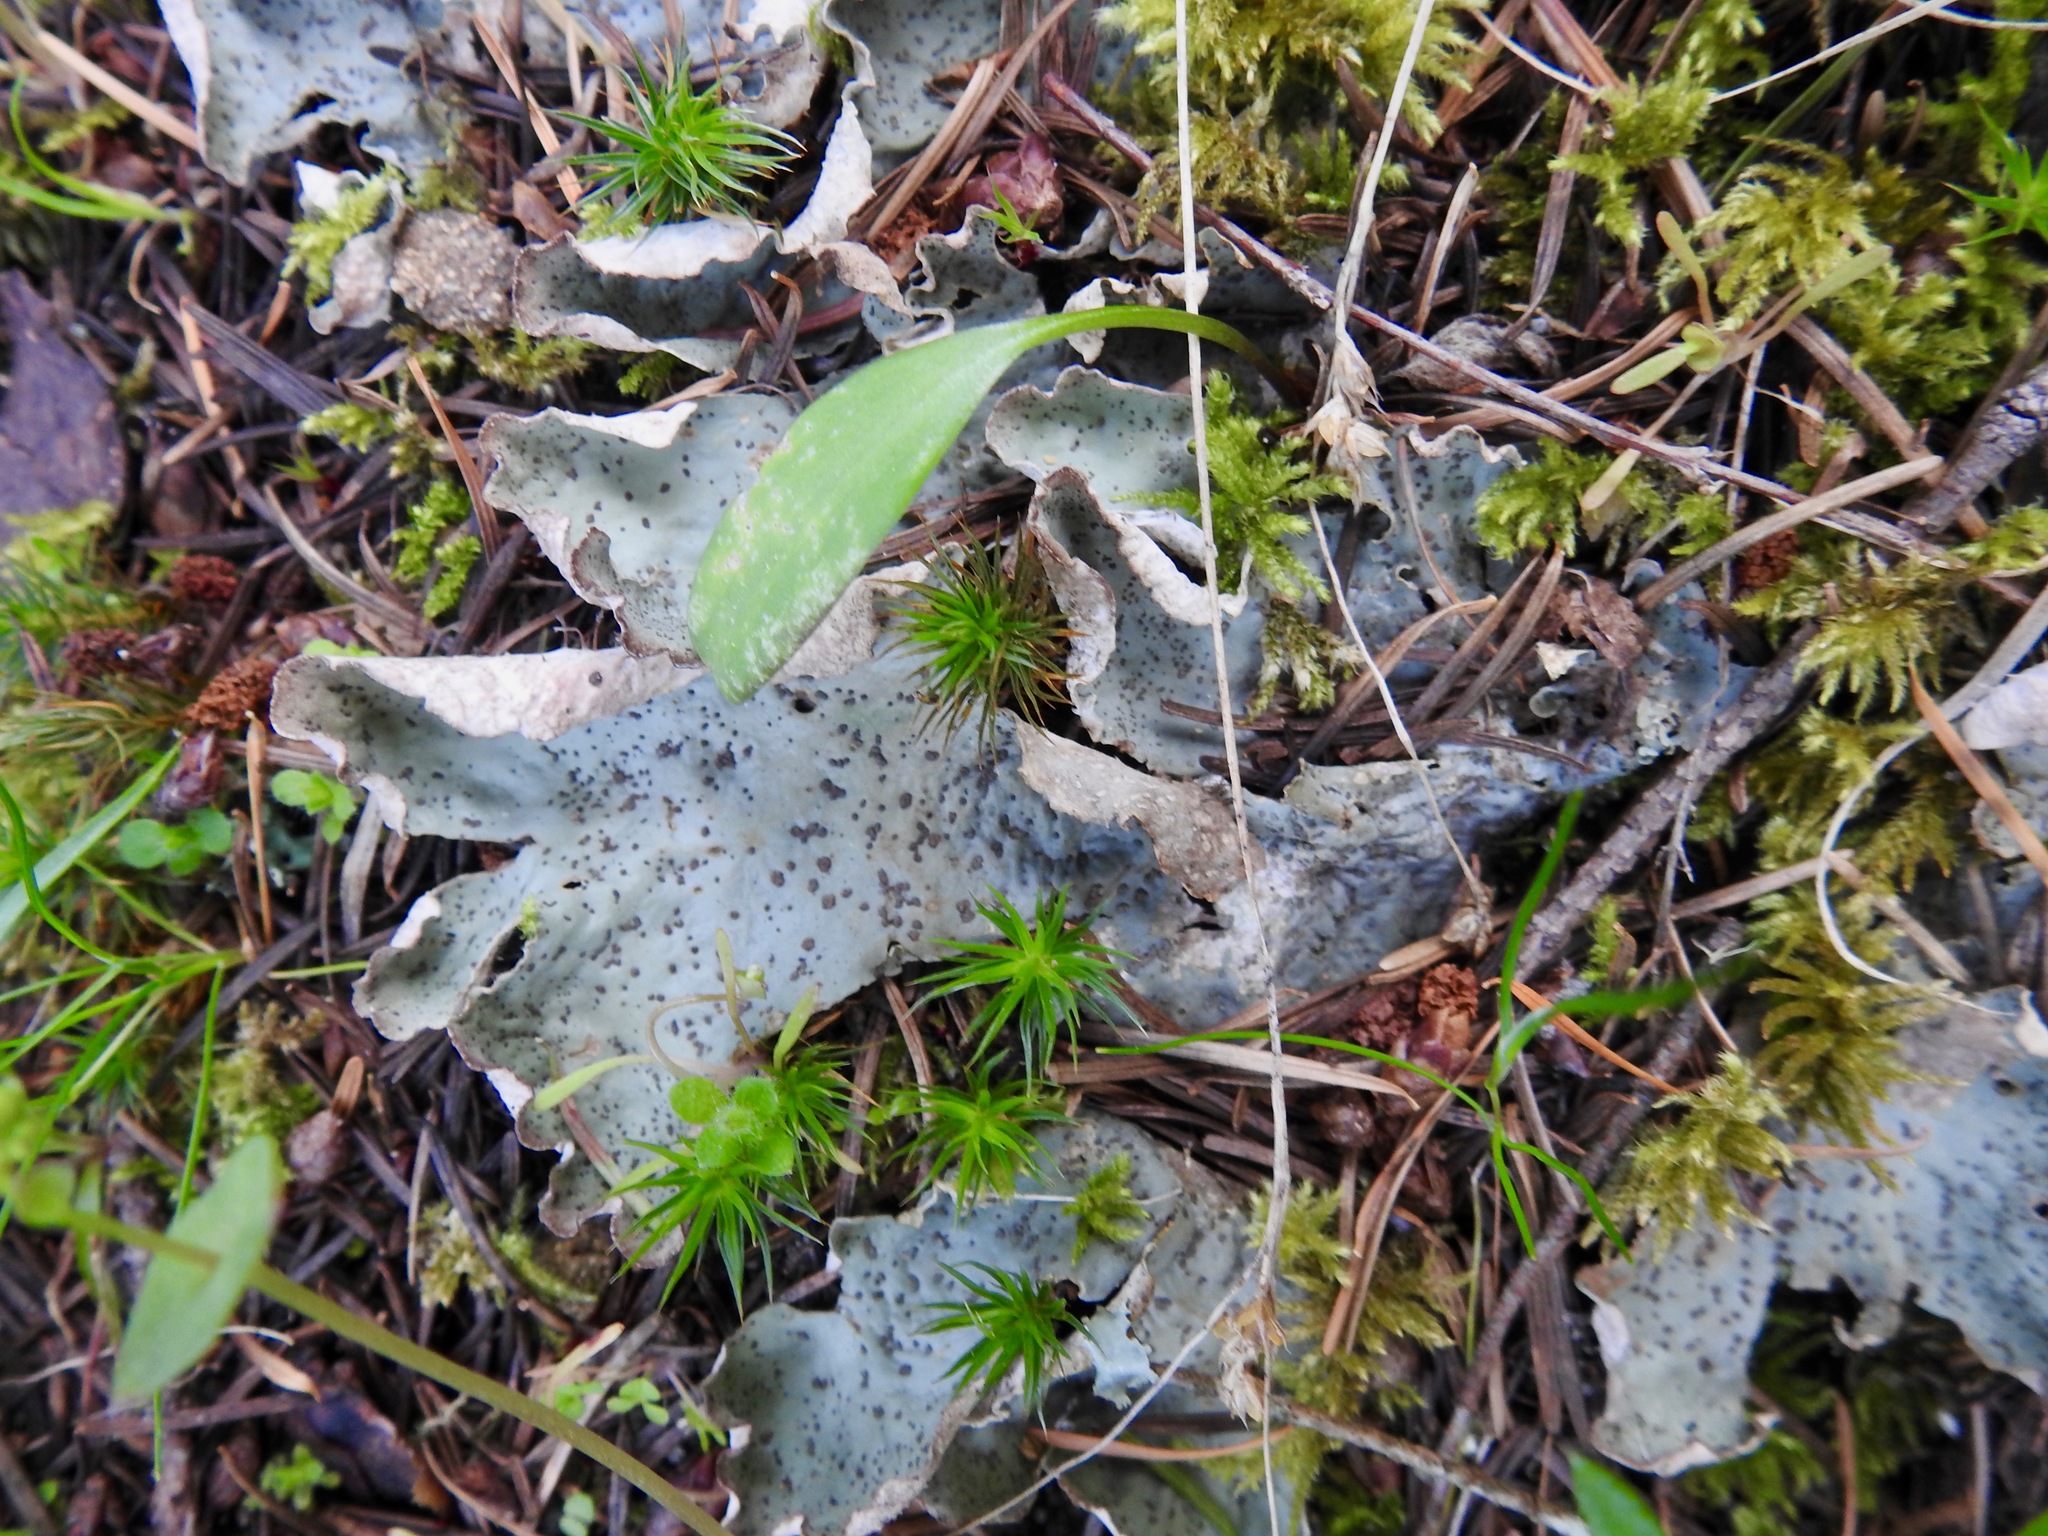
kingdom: Fungi
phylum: Ascomycota
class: Lecanoromycetes
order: Peltigerales
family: Peltigeraceae
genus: Peltigera
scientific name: Peltigera britannica
